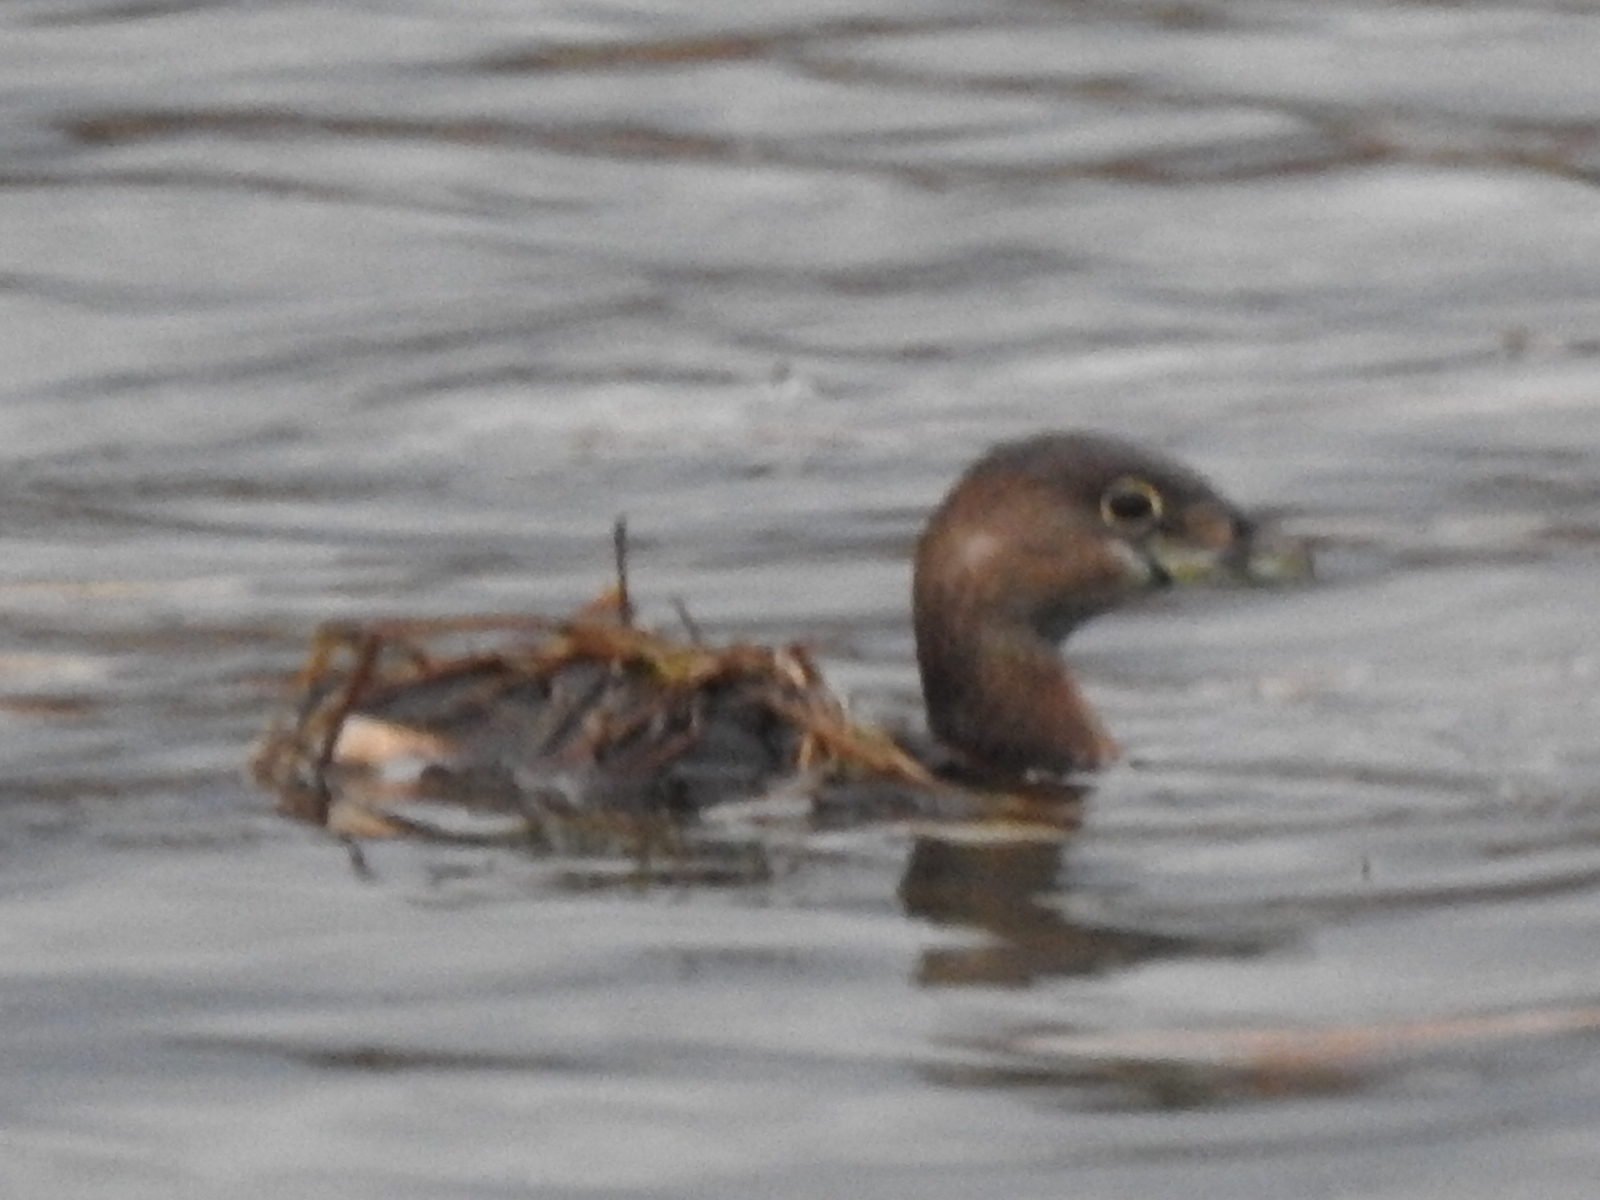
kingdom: Animalia
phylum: Chordata
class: Aves
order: Podicipediformes
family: Podicipedidae
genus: Podilymbus
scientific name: Podilymbus podiceps
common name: Pied-billed grebe
